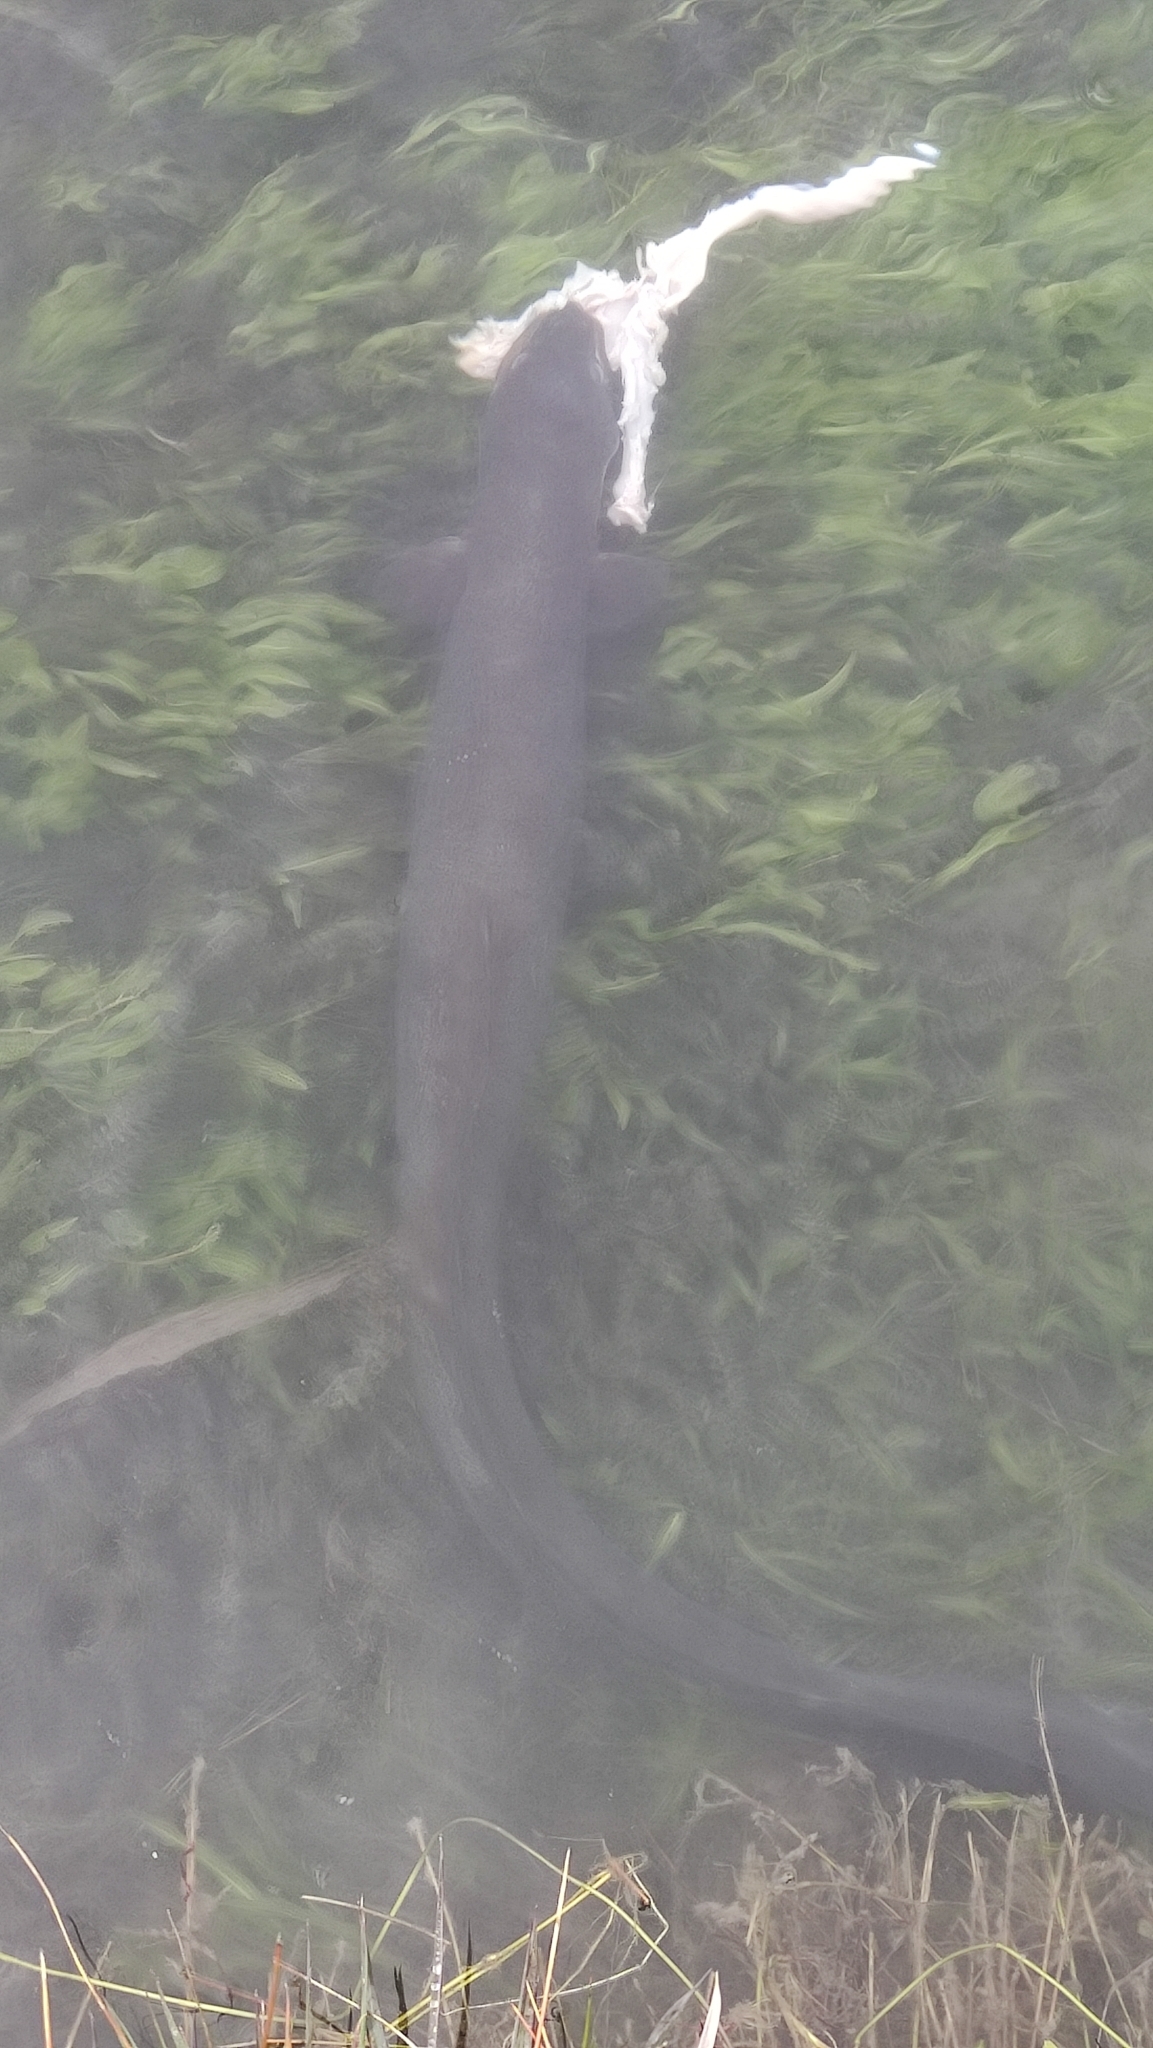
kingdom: Animalia
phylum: Chordata
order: Anguilliformes
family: Anguillidae
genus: Anguilla
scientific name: Anguilla dieffenbachii
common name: New zealand longfin eel
